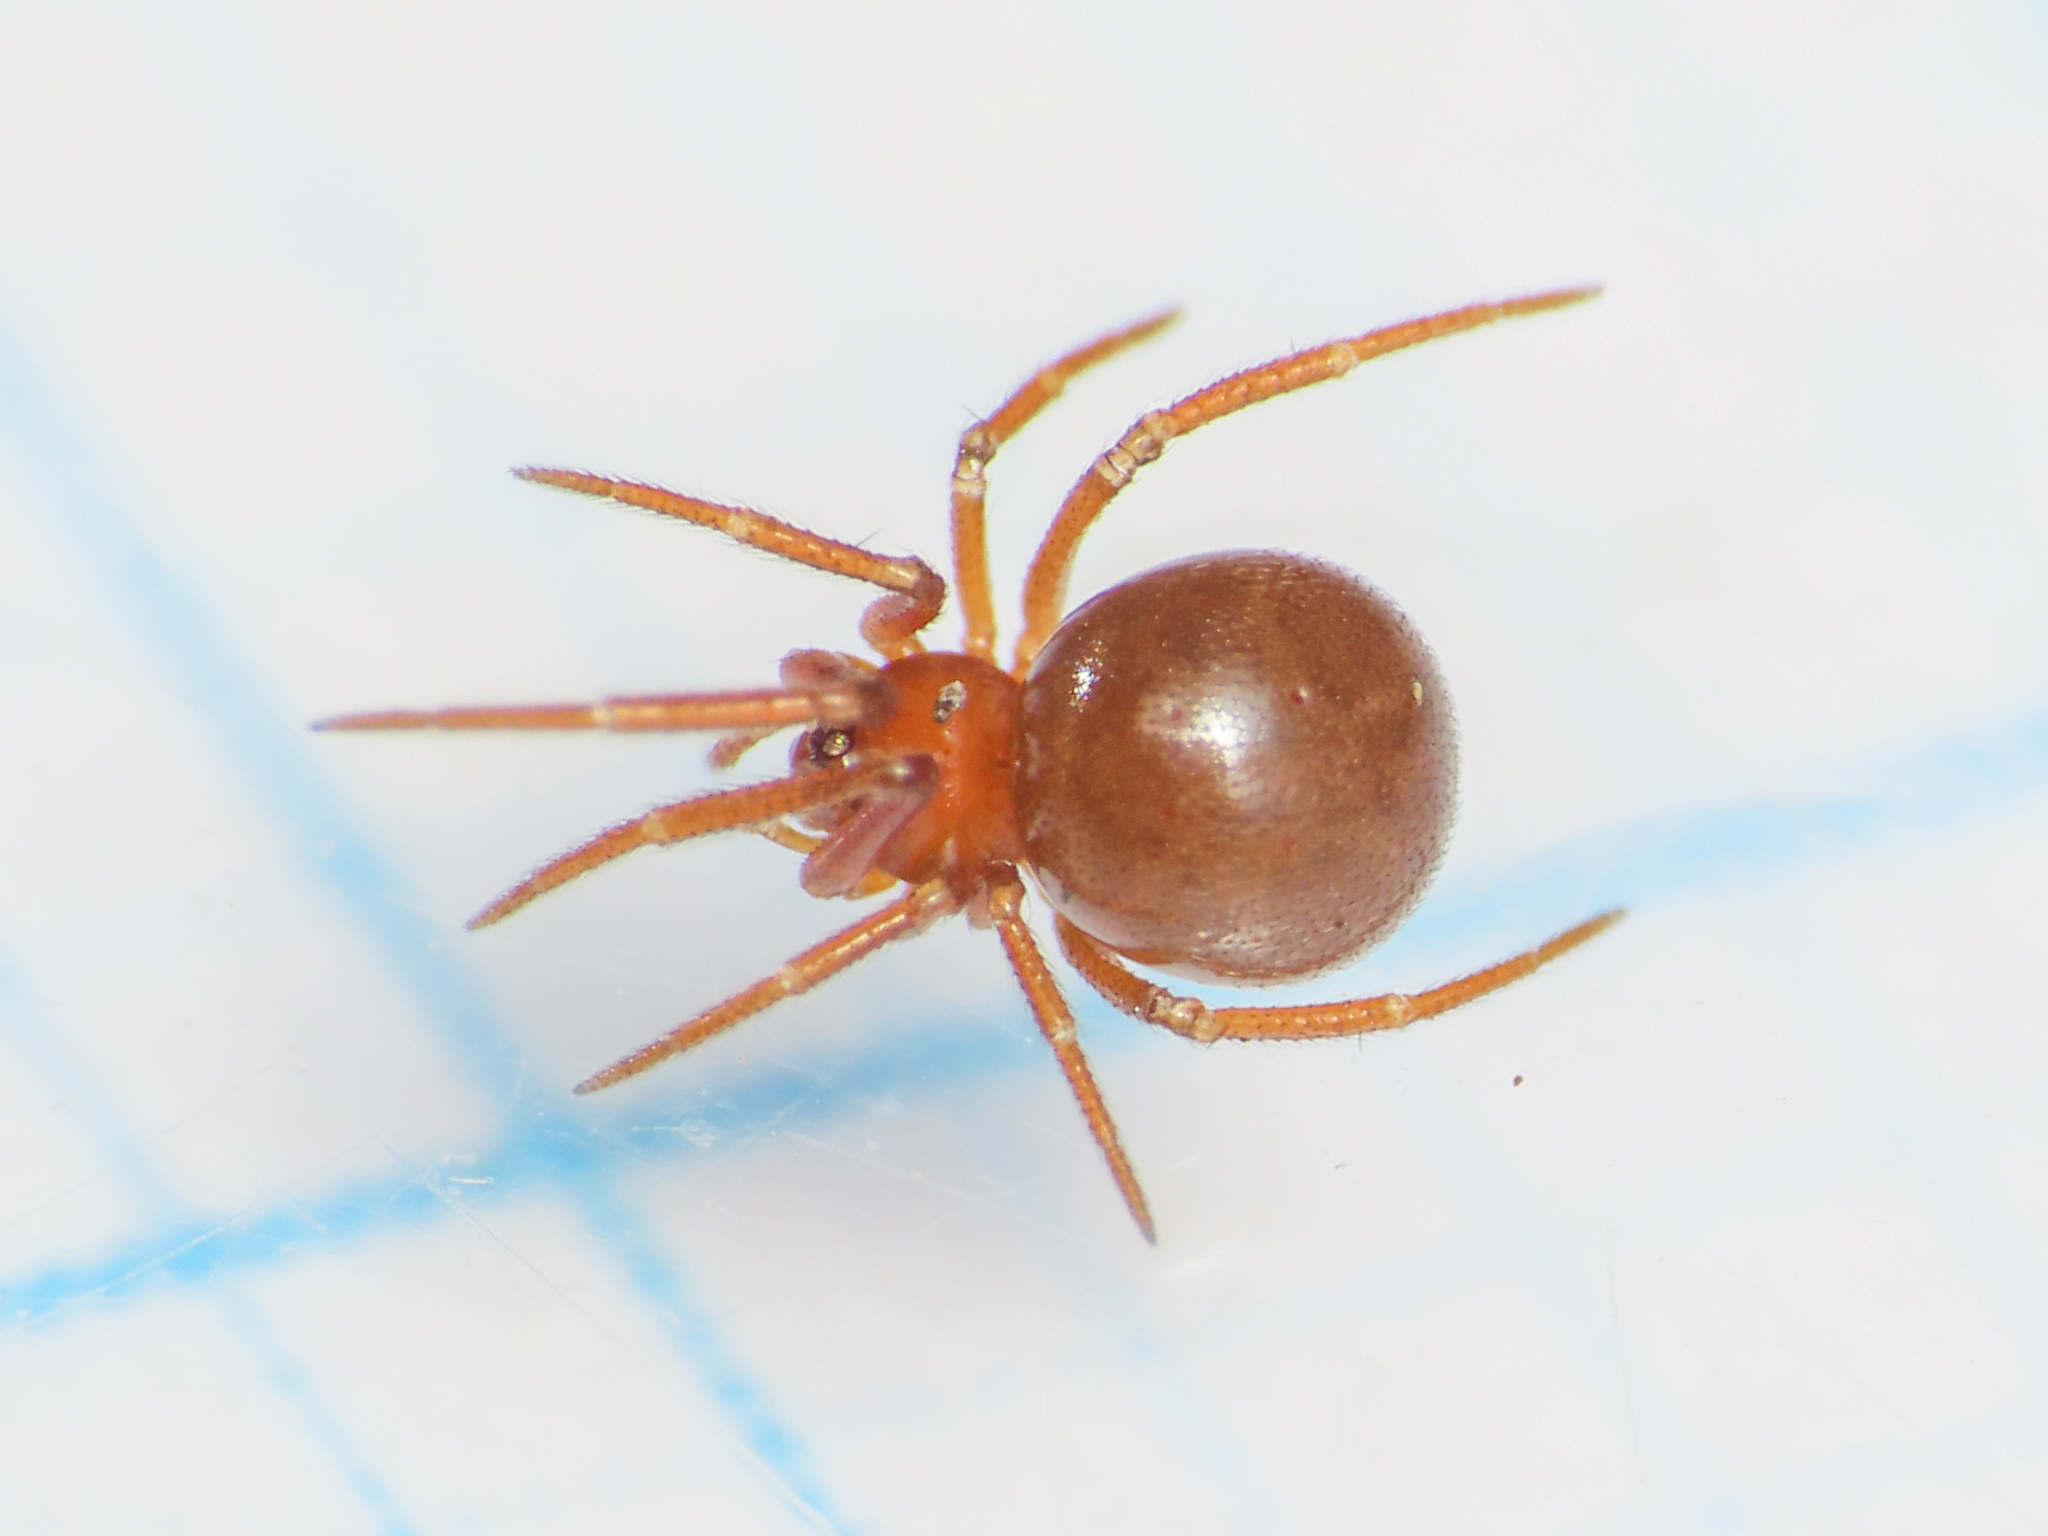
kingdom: Animalia
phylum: Arthropoda
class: Arachnida
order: Araneae
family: Theridiidae
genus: Pholcomma
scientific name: Pholcomma gibbum
